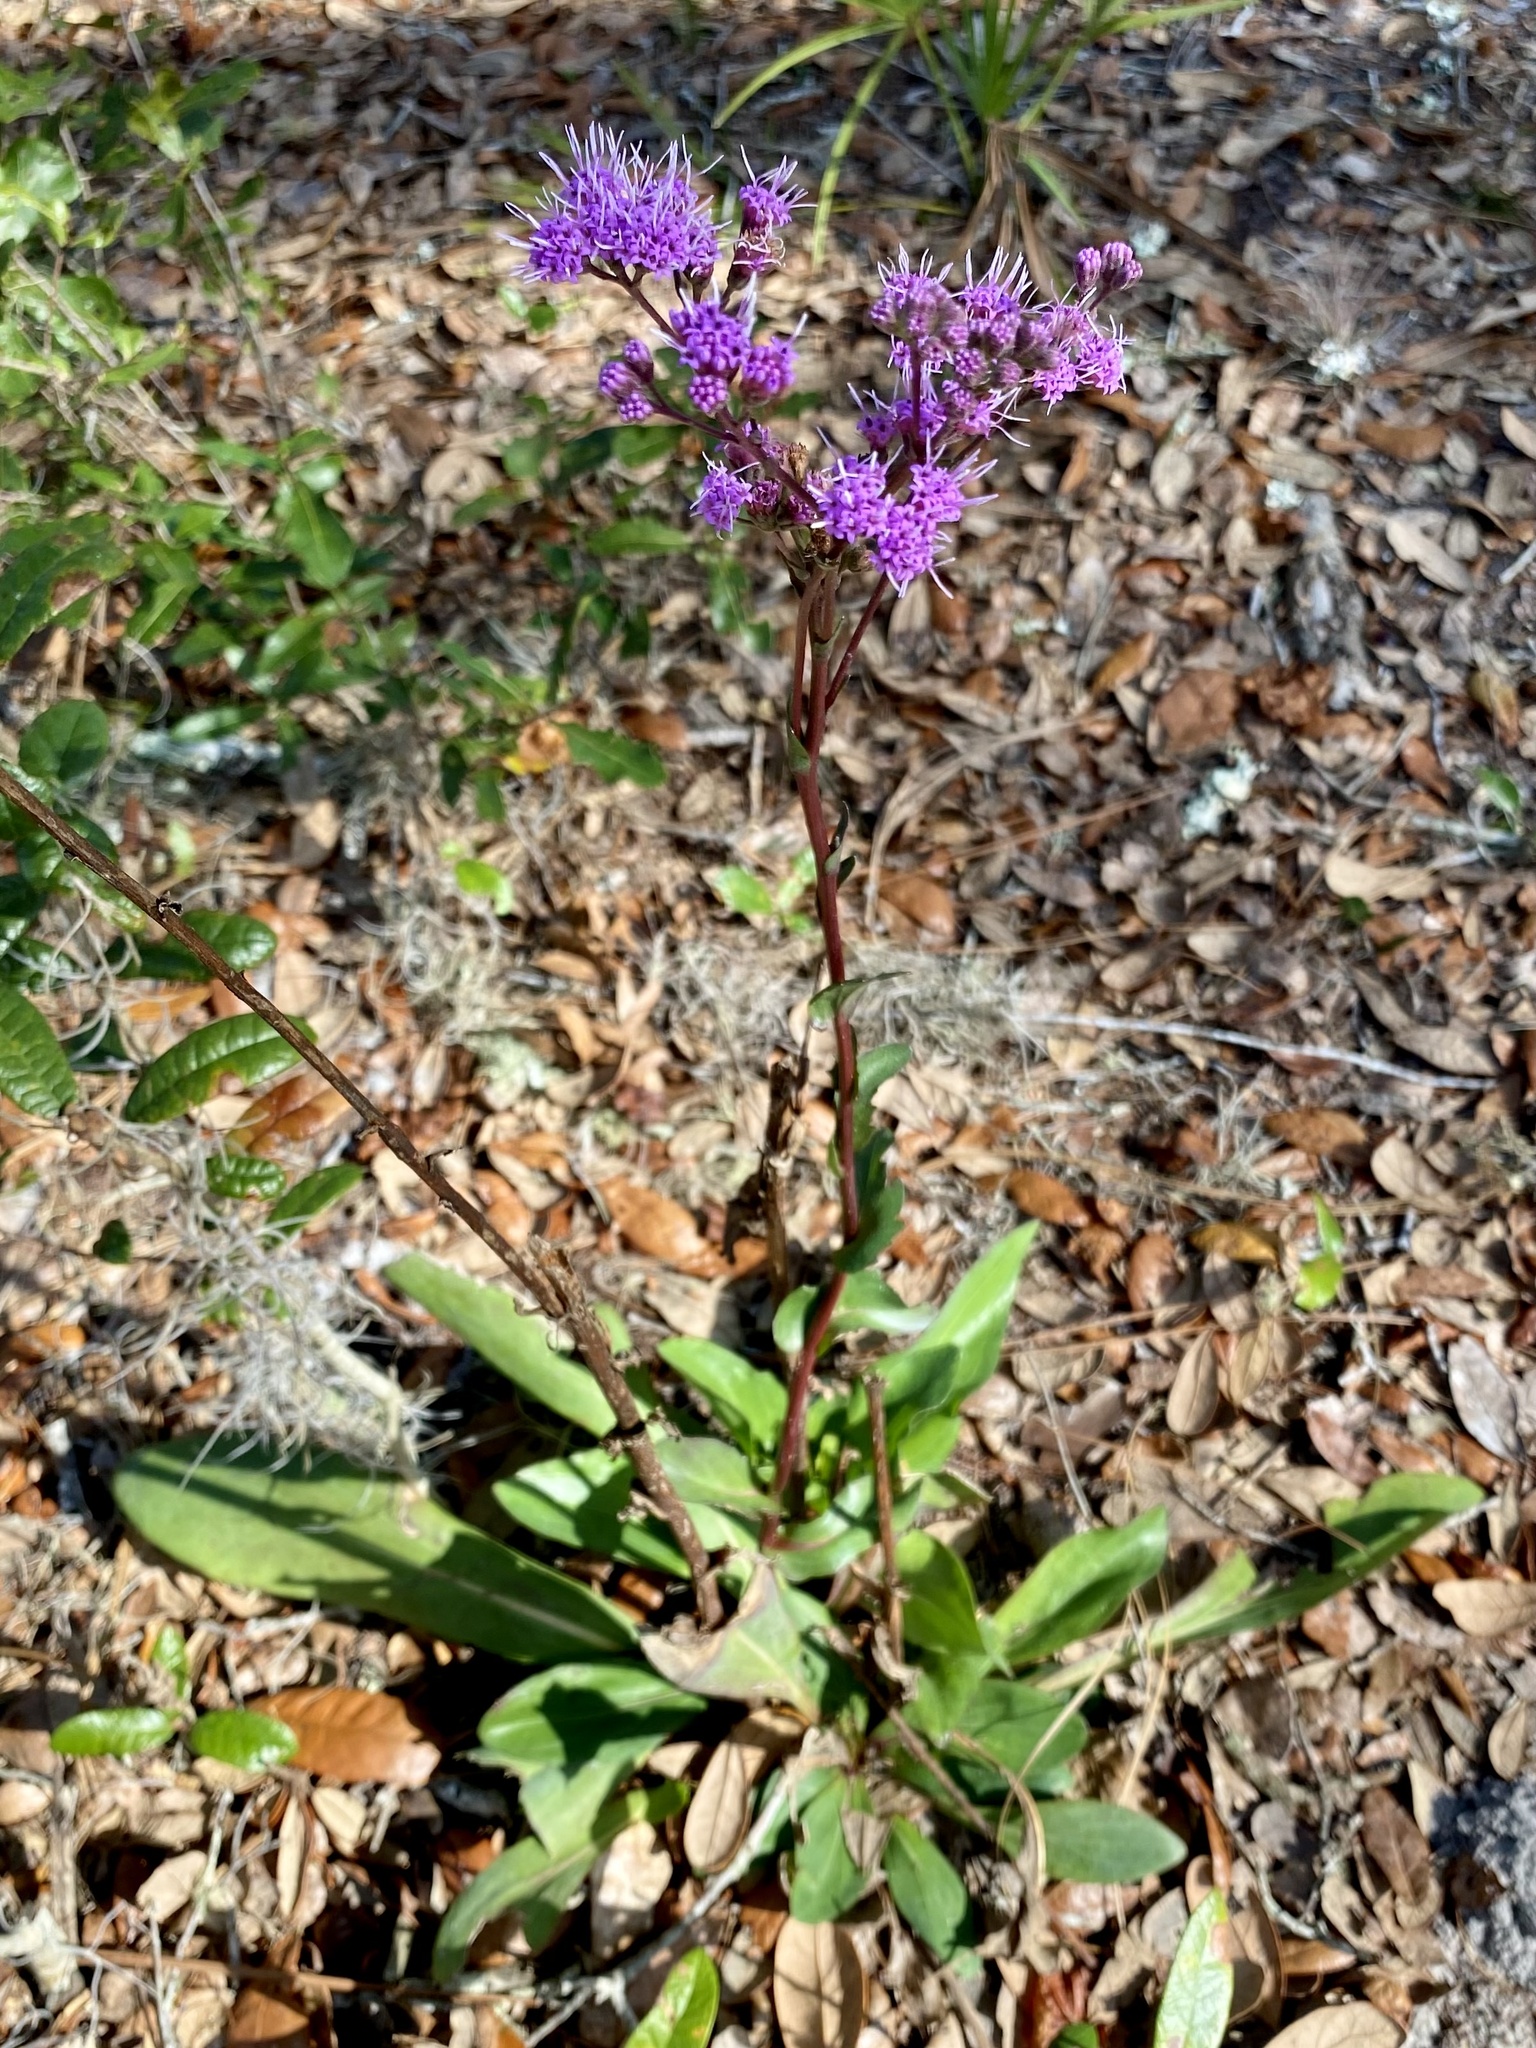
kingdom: Plantae
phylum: Tracheophyta
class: Magnoliopsida
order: Asterales
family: Asteraceae
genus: Carphephorus
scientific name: Carphephorus odoratissimus
